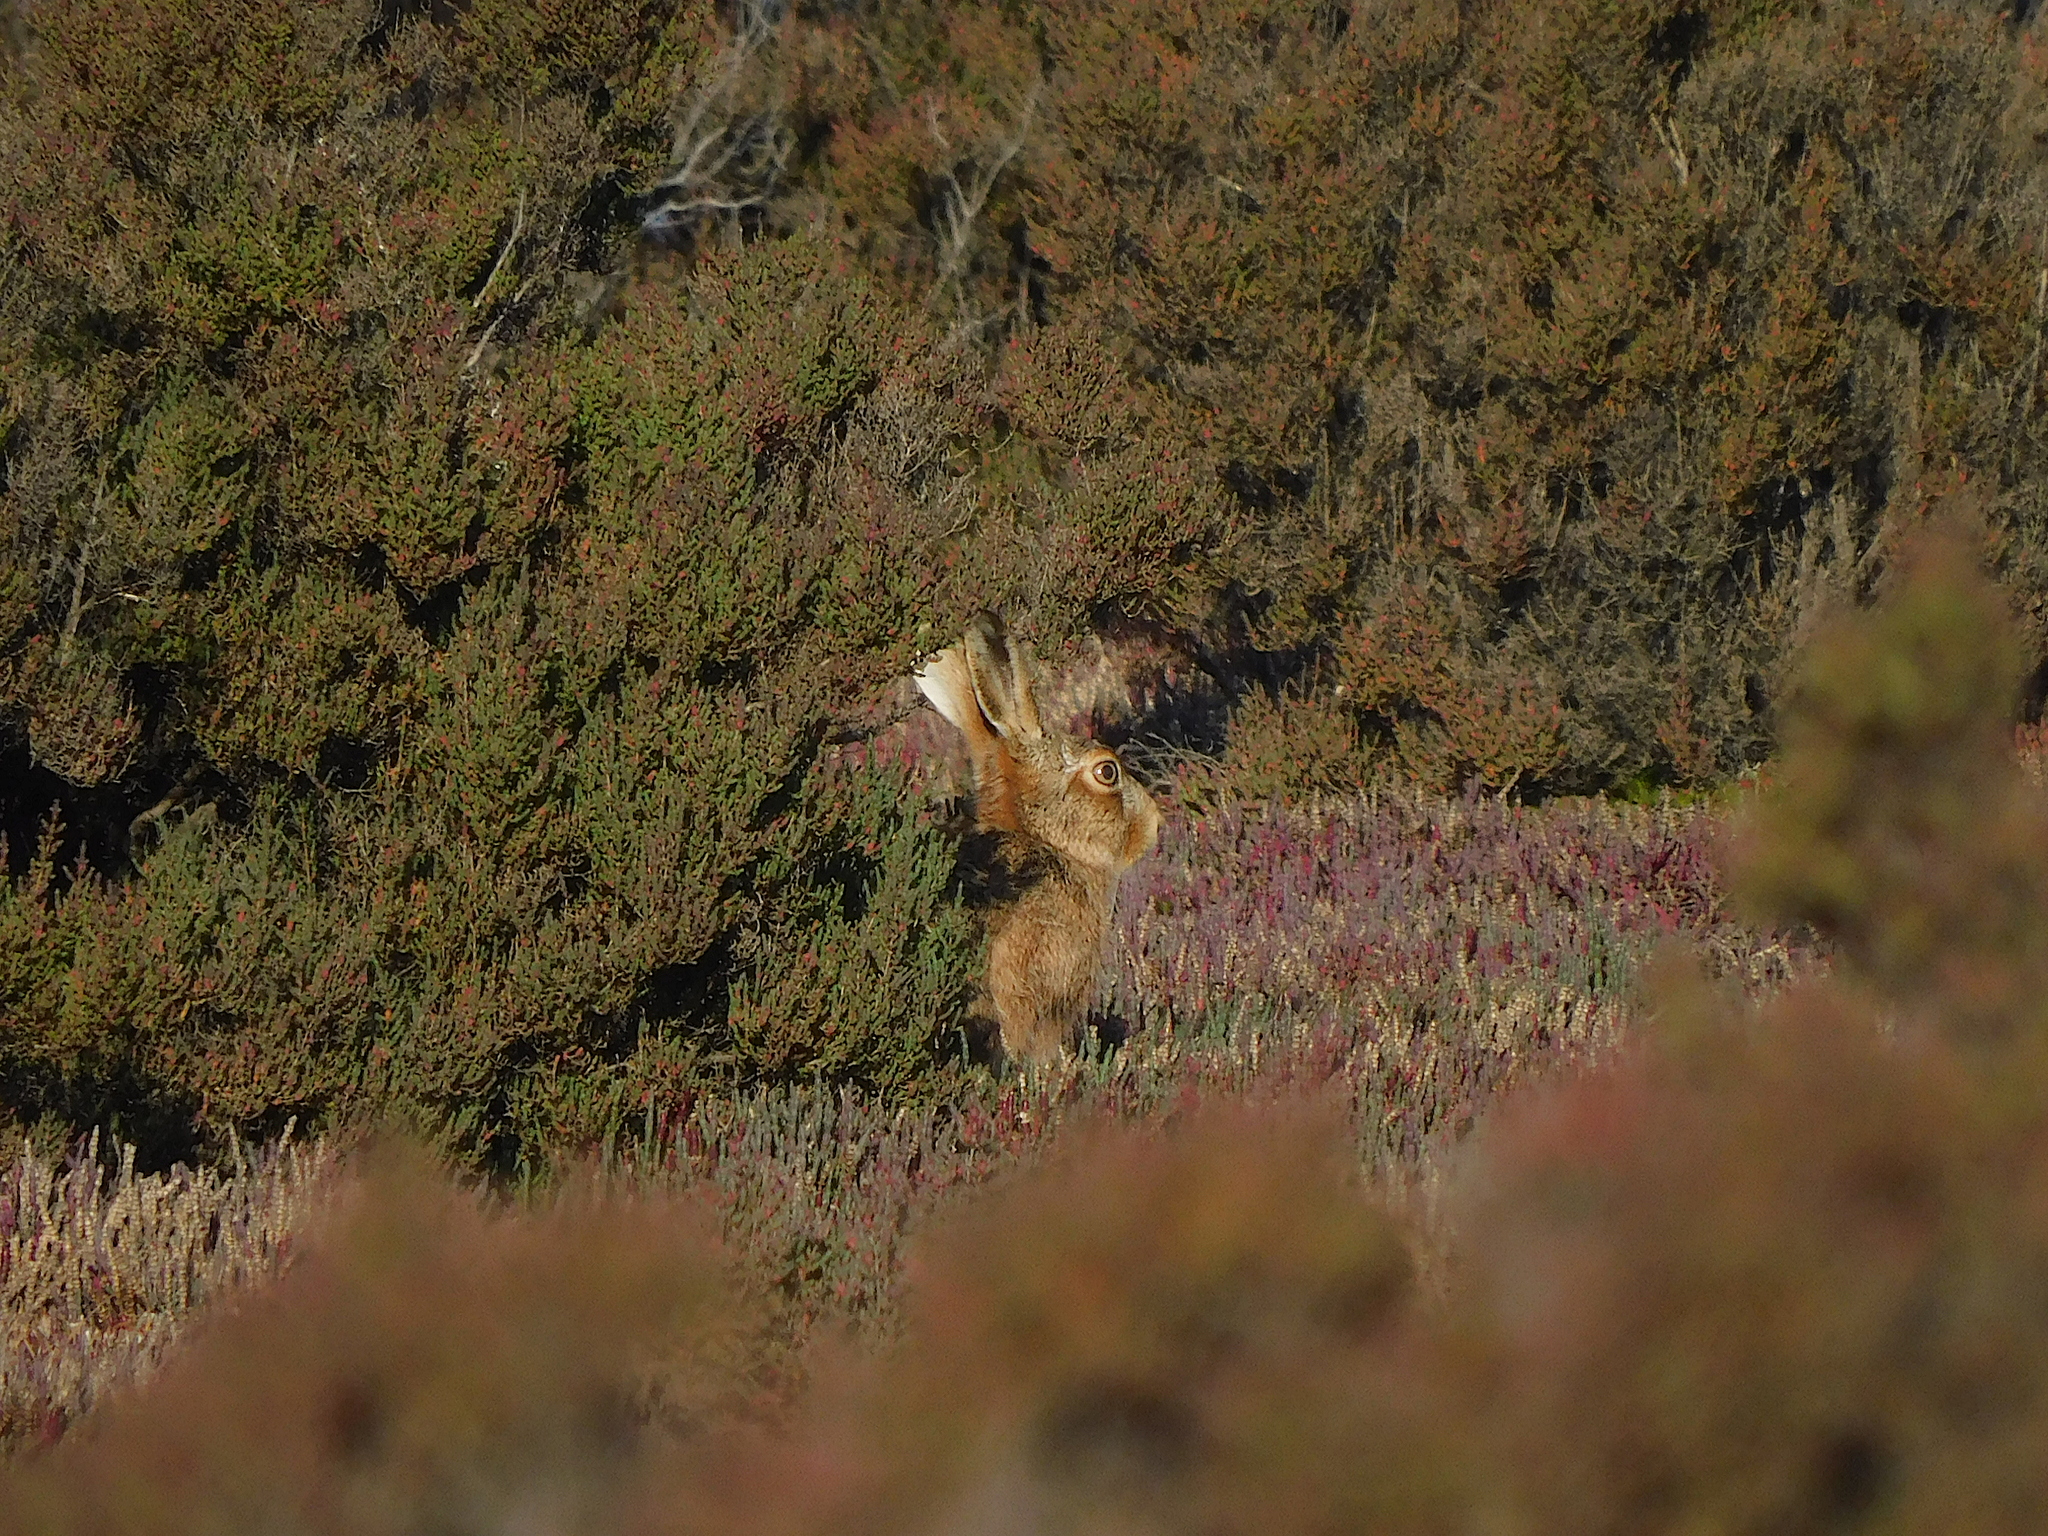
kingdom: Animalia
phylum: Chordata
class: Mammalia
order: Lagomorpha
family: Leporidae
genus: Lepus
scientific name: Lepus europaeus
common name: European hare
